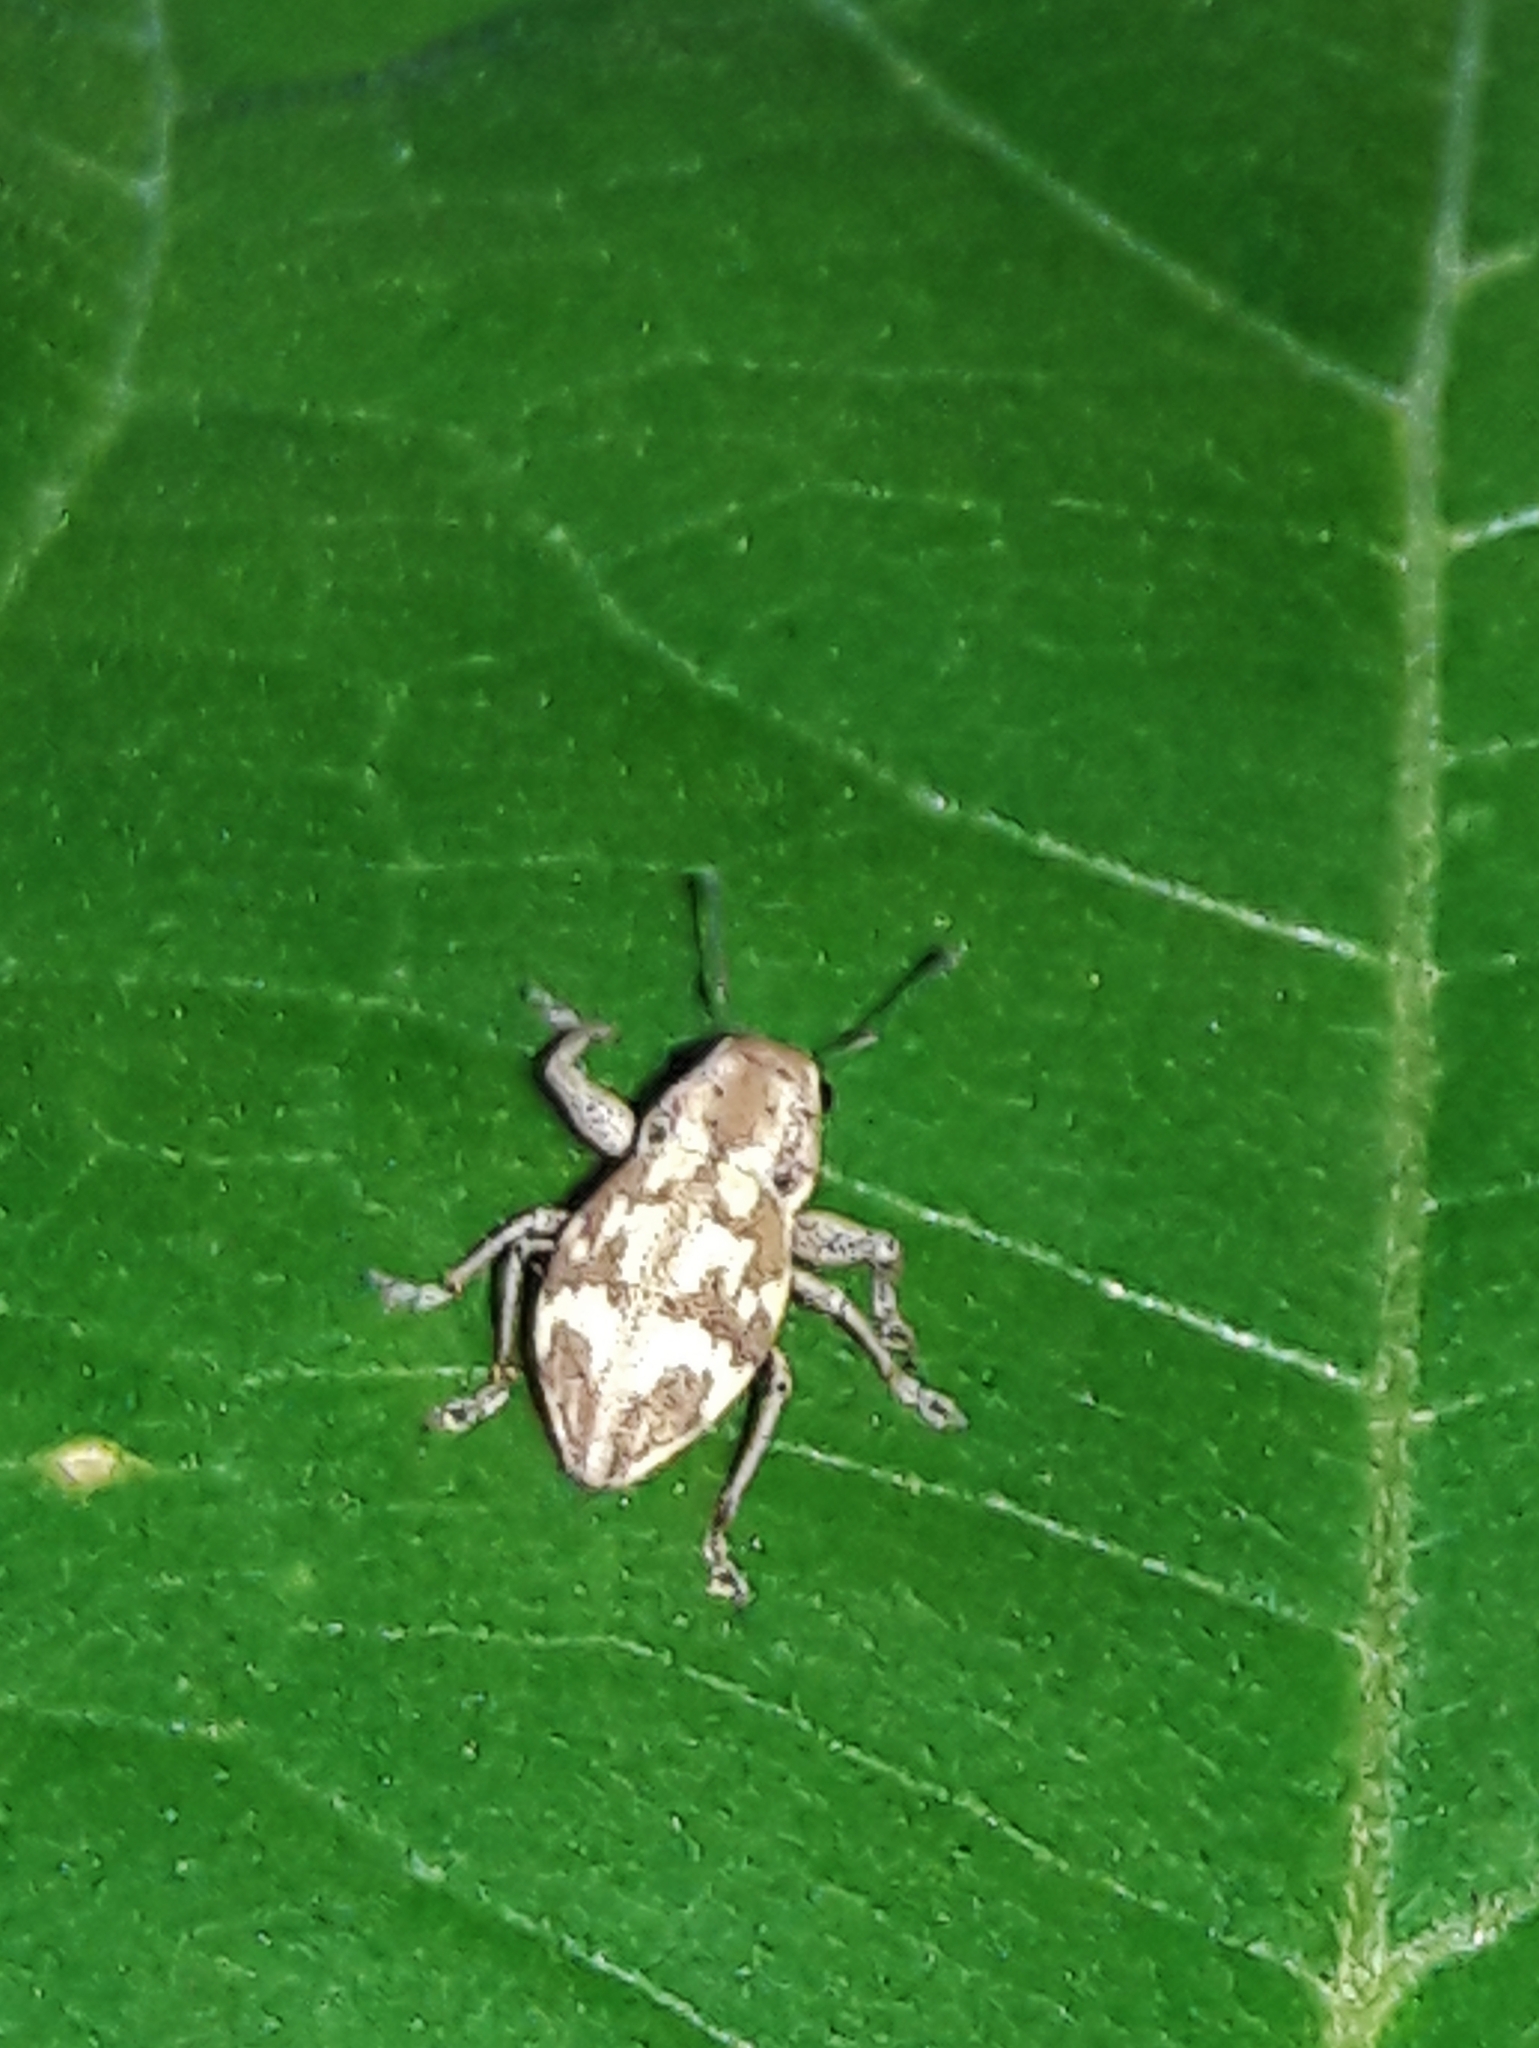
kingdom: Animalia
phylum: Arthropoda
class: Insecta
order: Coleoptera
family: Curculionidae
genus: Parapantomorus
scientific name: Parapantomorus fluctuosus
